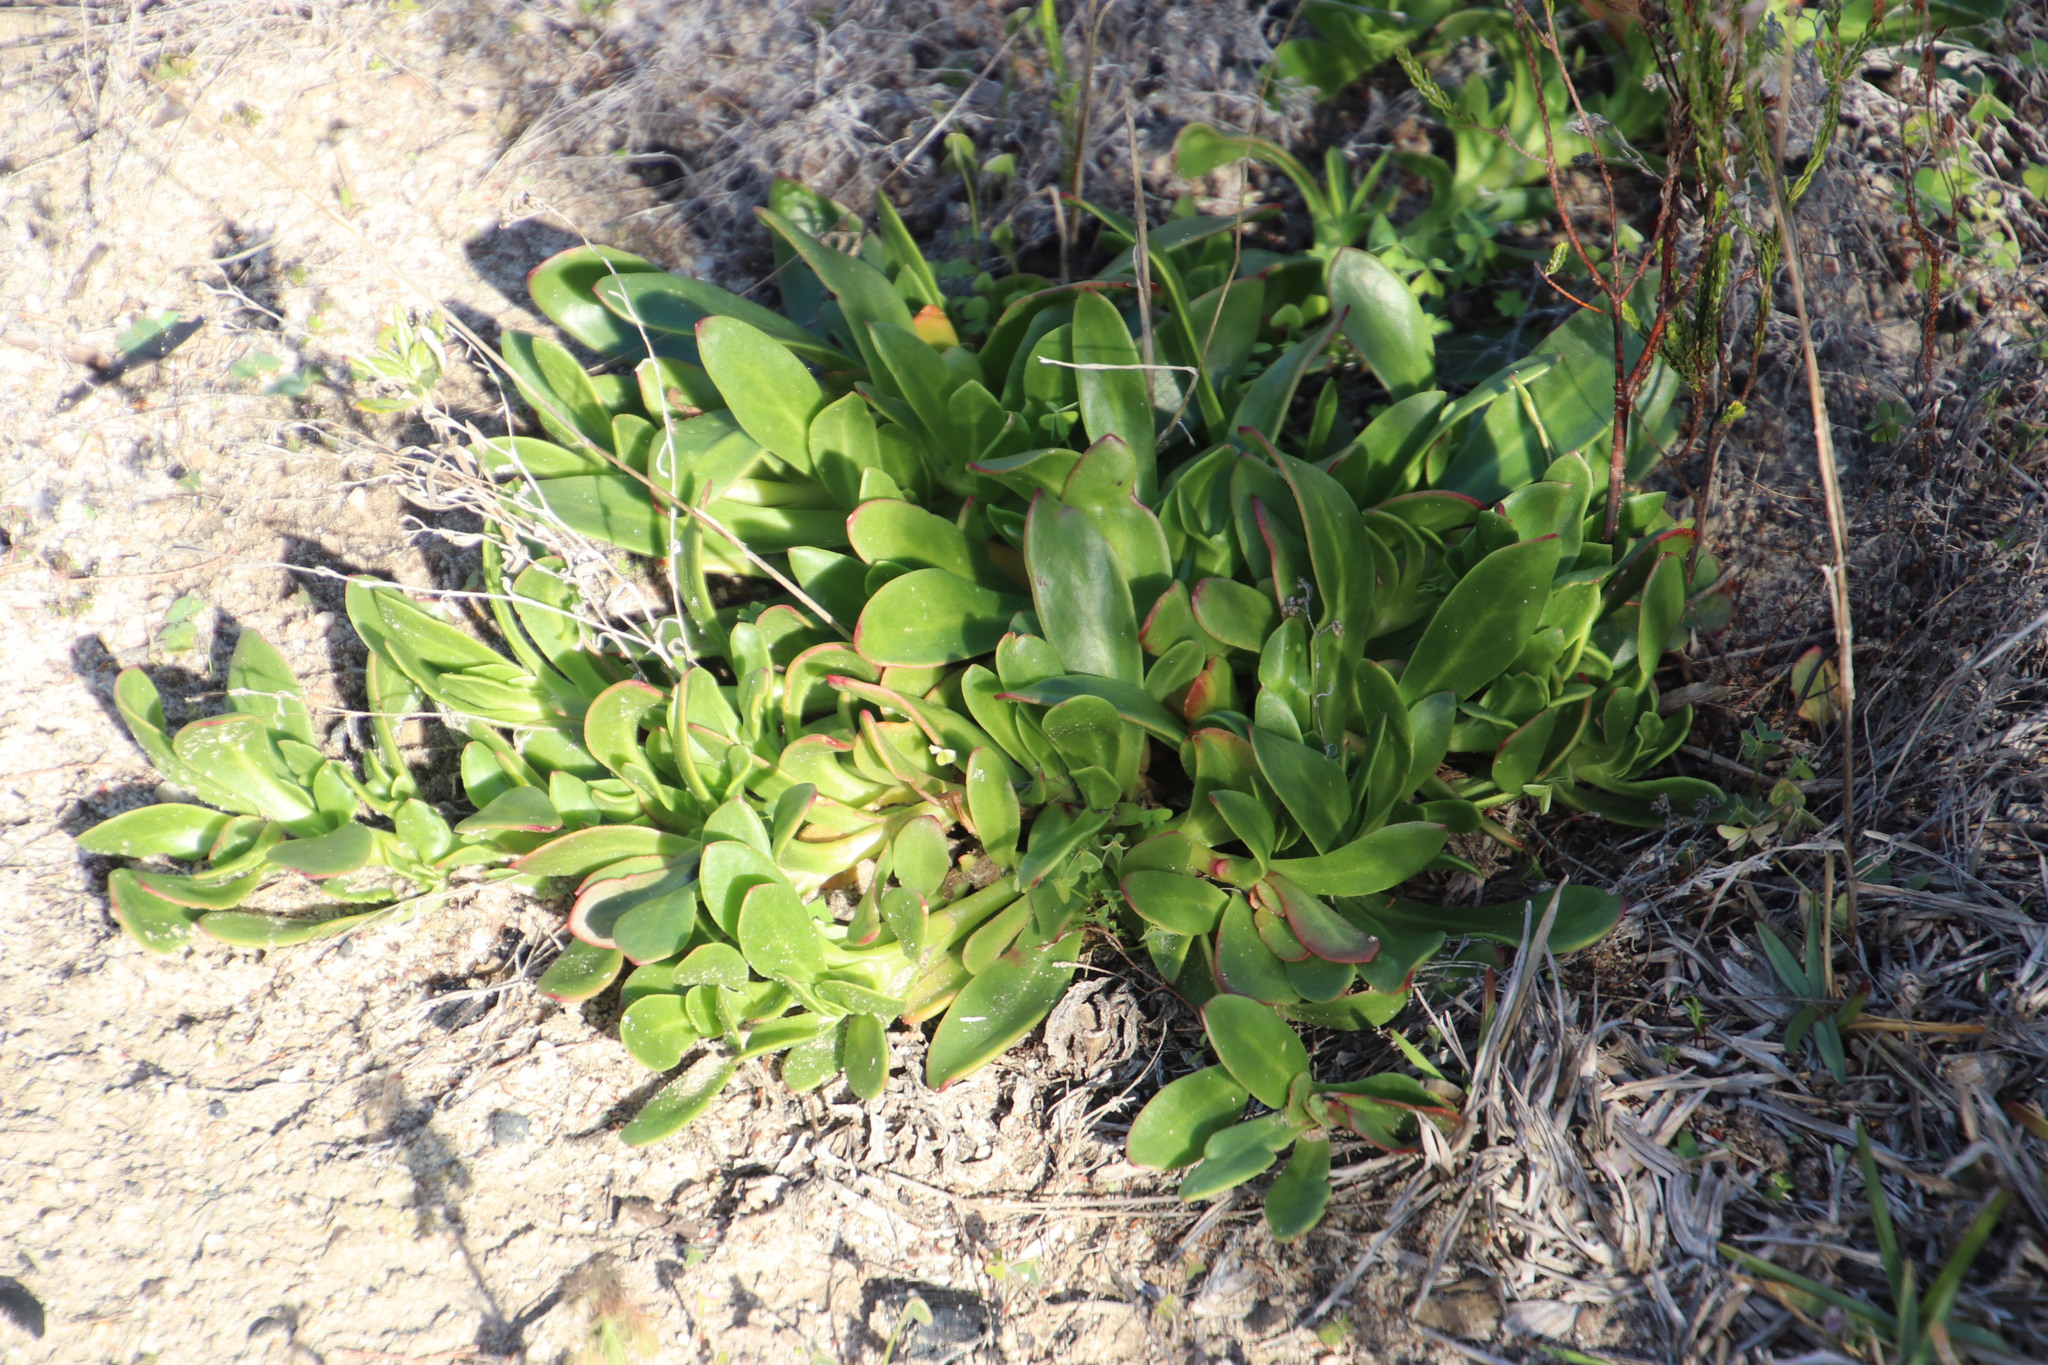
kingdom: Plantae
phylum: Tracheophyta
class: Magnoliopsida
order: Caryophyllales
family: Aizoaceae
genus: Skiatophytum
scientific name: Skiatophytum tripolium
